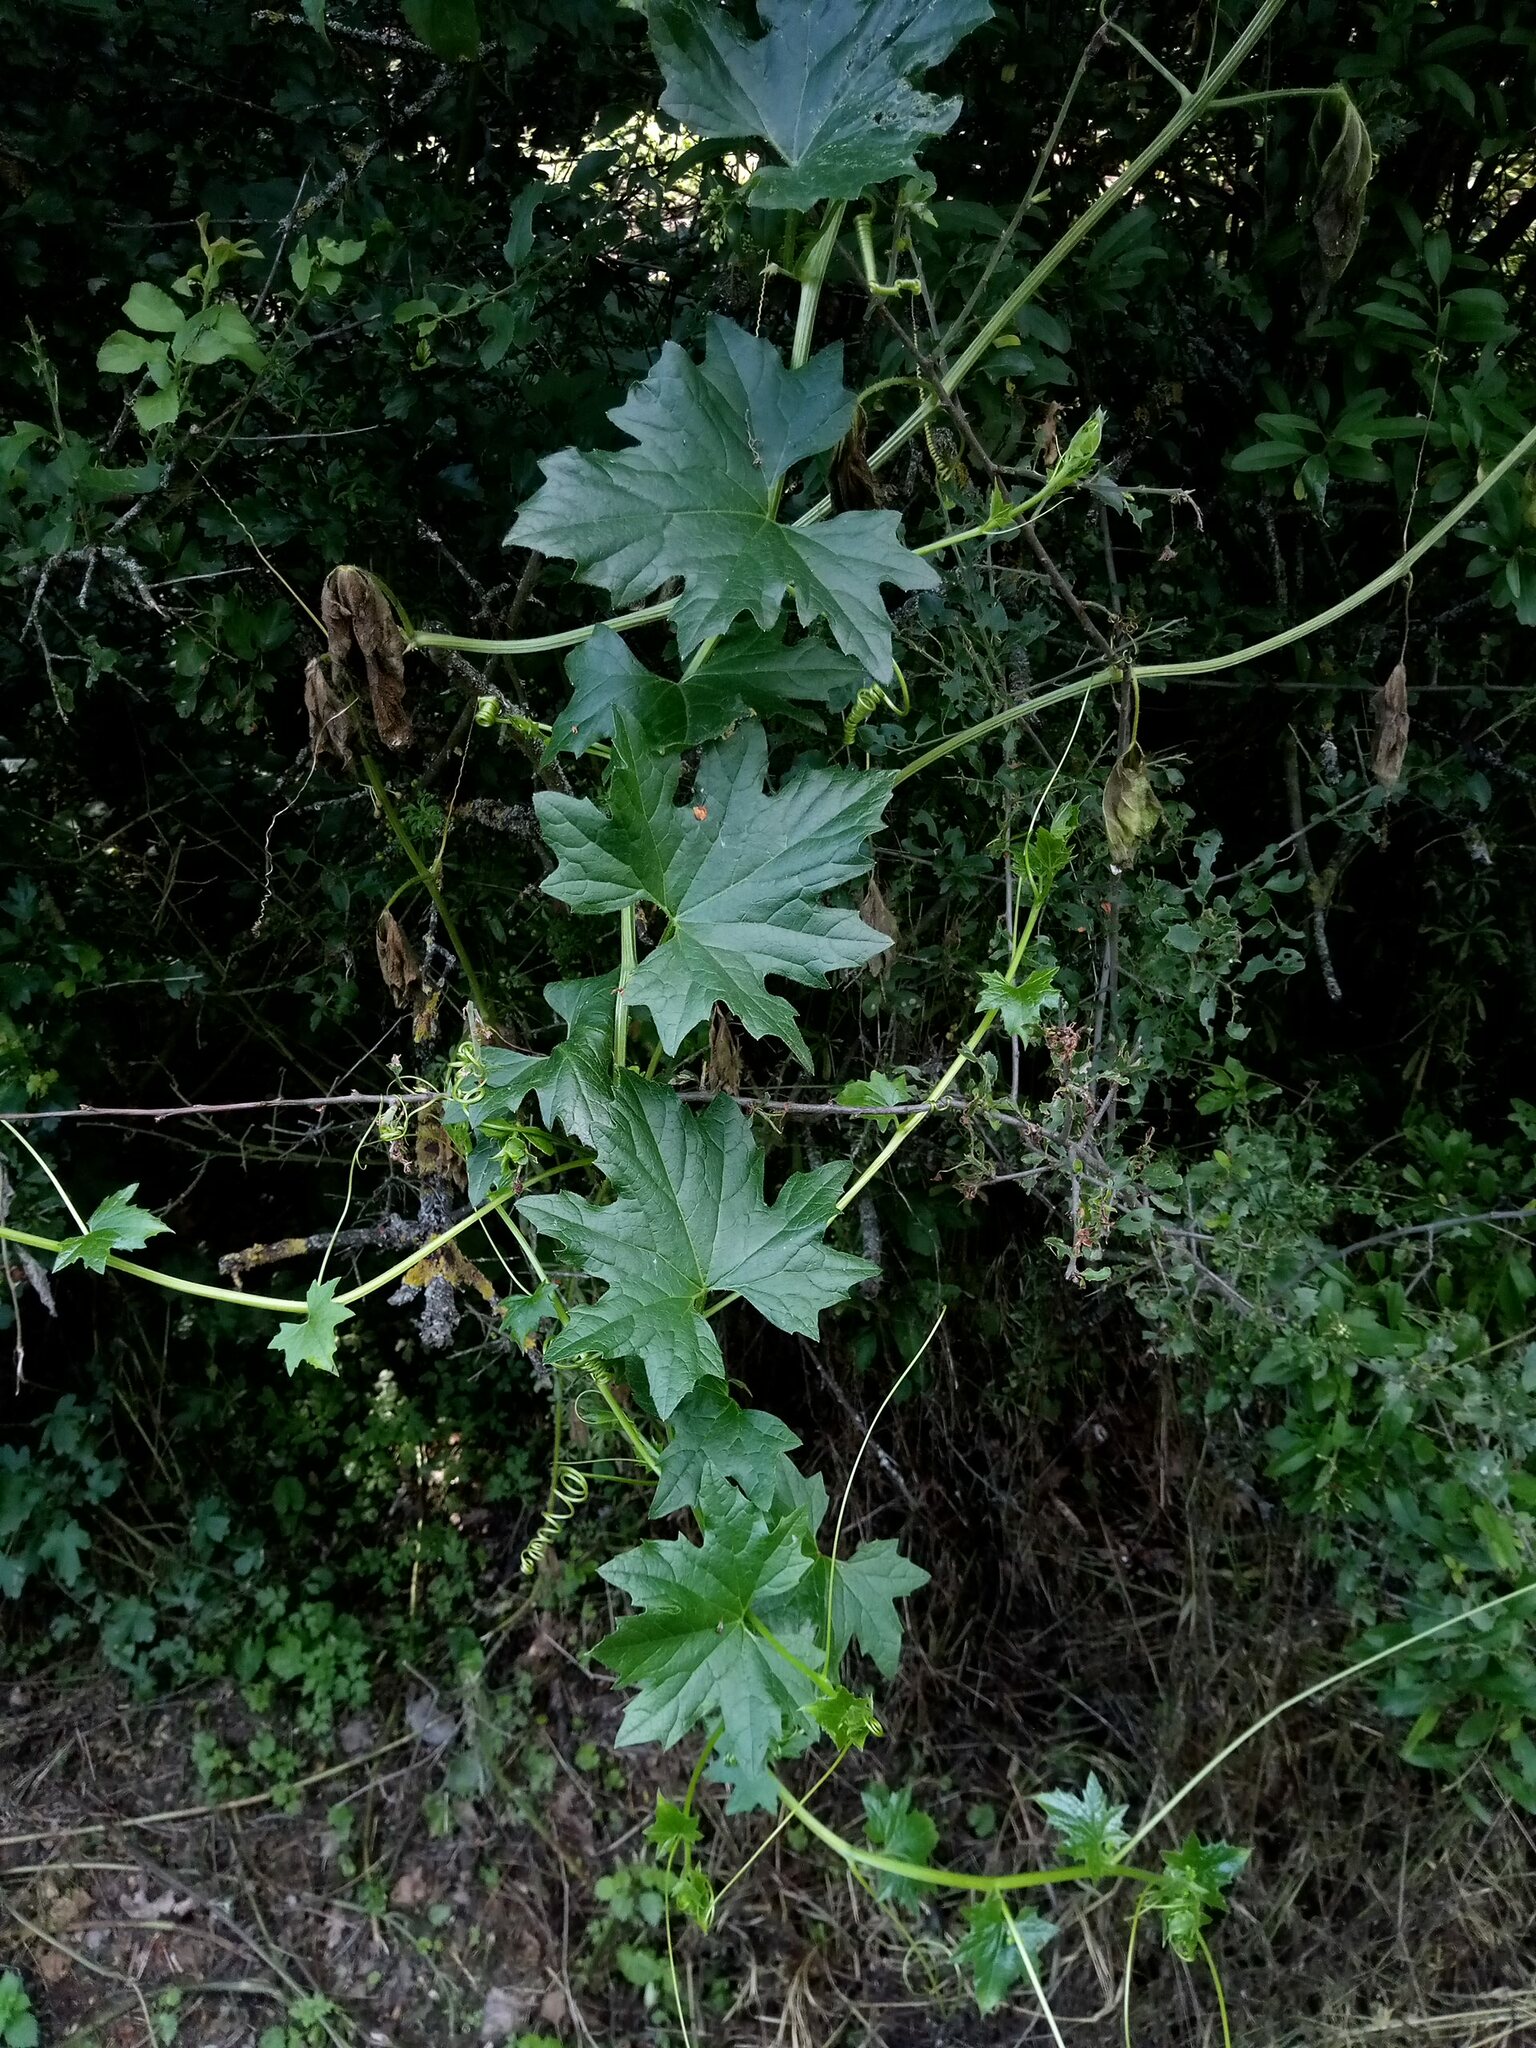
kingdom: Plantae
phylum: Tracheophyta
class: Magnoliopsida
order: Cucurbitales
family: Cucurbitaceae
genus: Bryonia
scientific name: Bryonia alba
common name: White bryony
